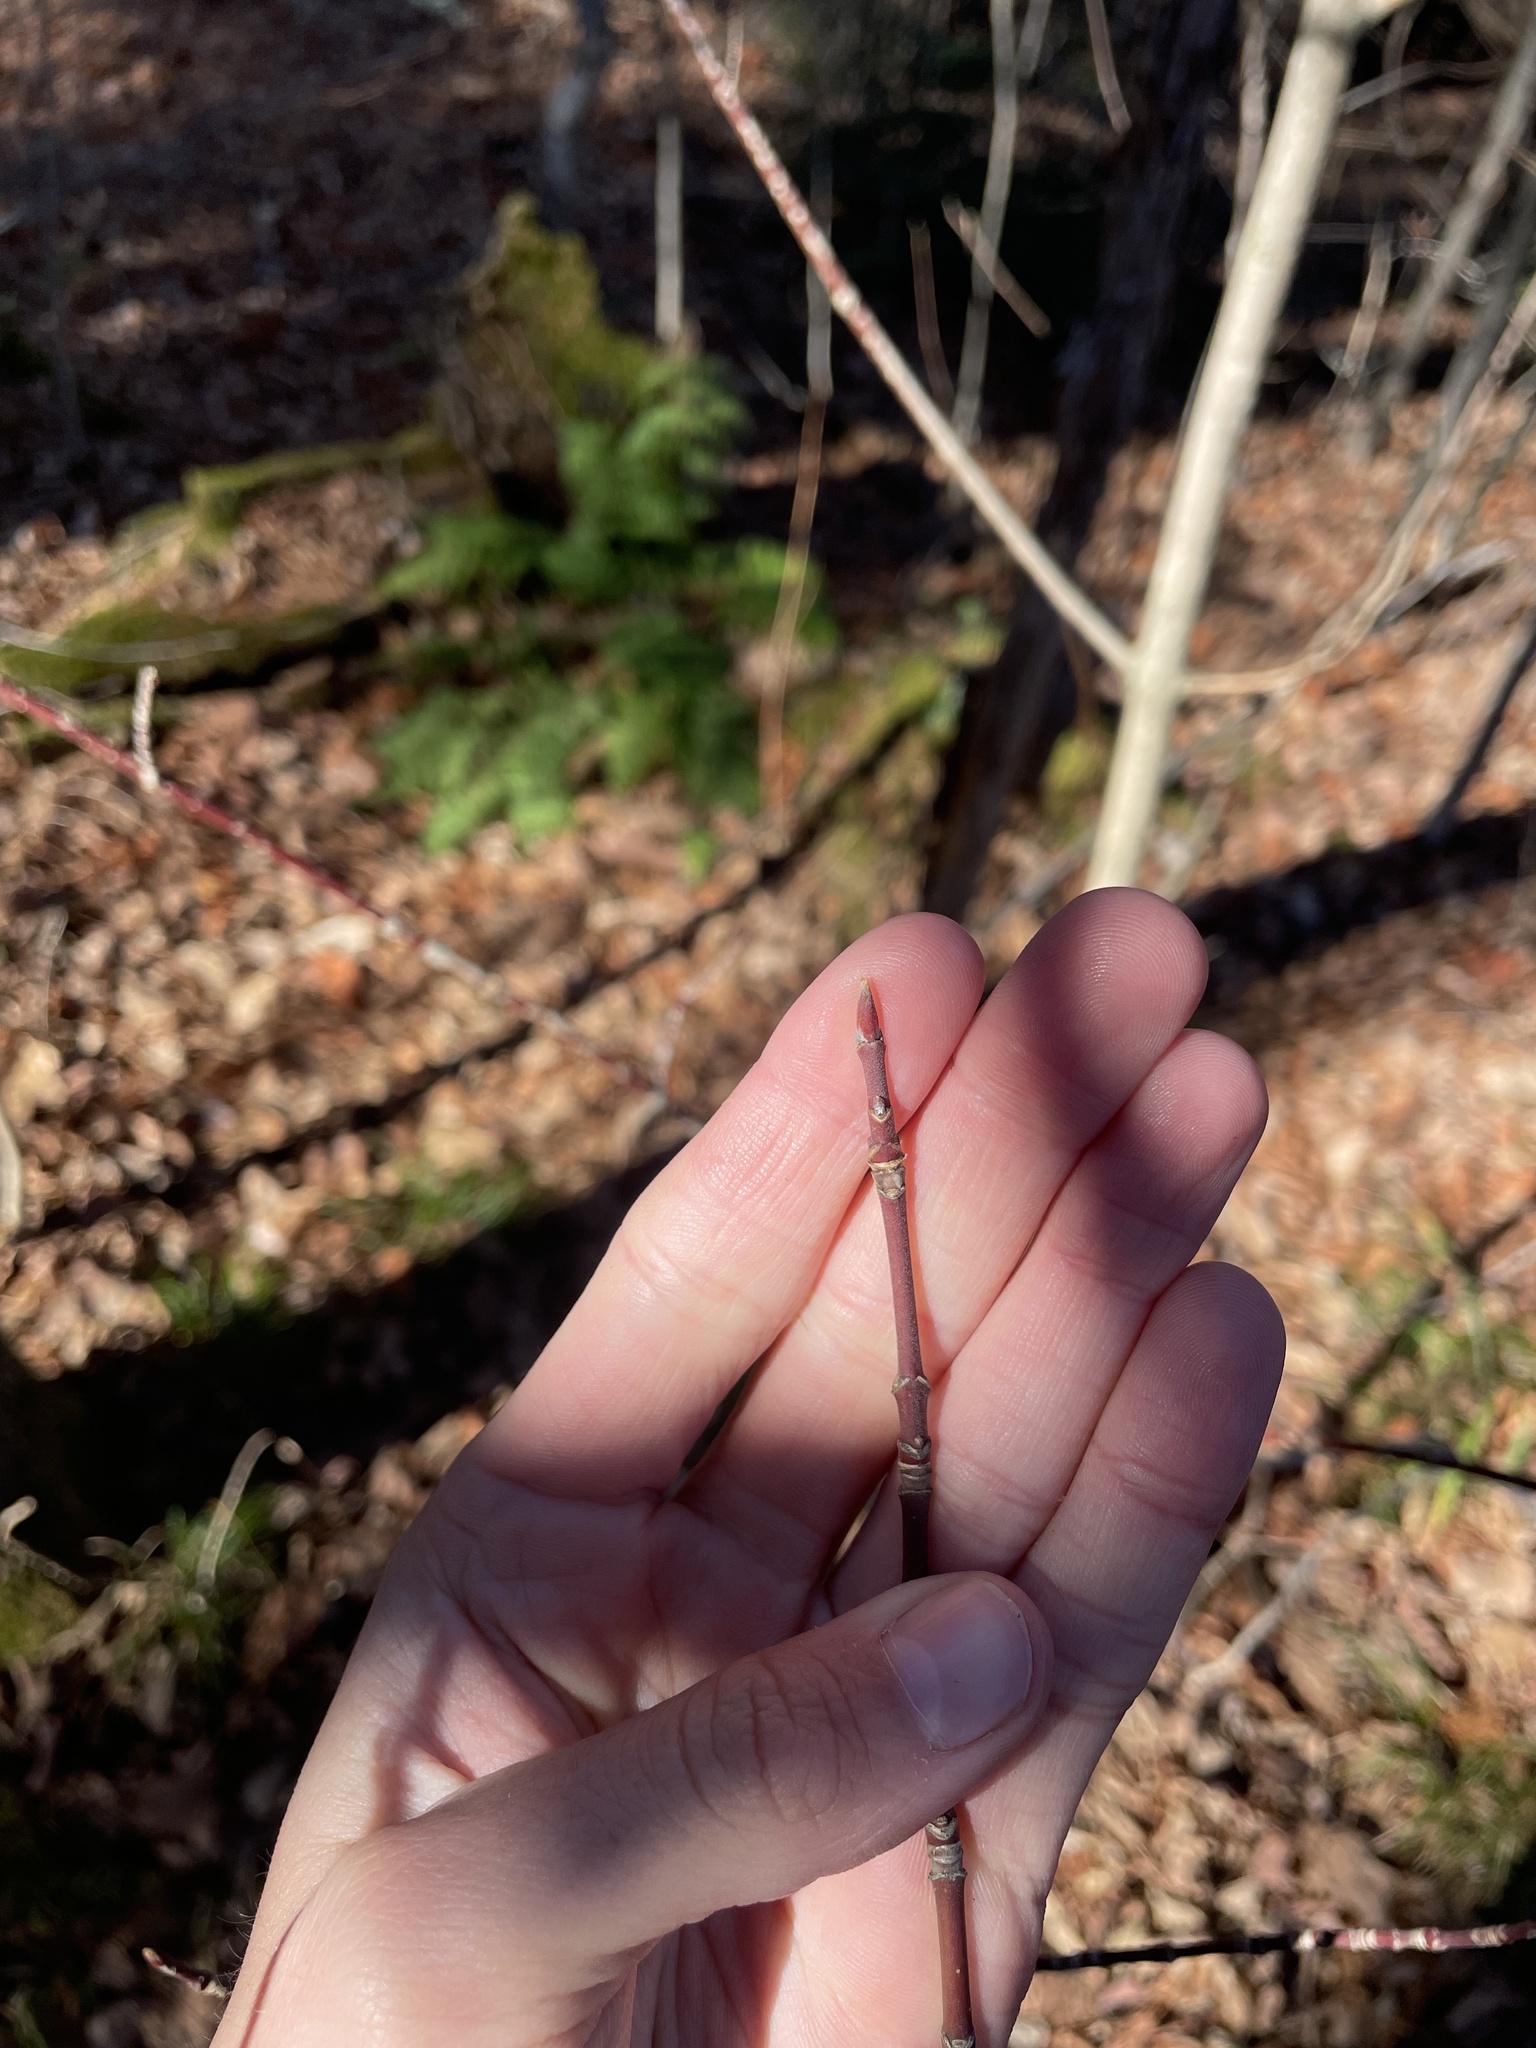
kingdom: Plantae
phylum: Tracheophyta
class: Magnoliopsida
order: Sapindales
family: Sapindaceae
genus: Acer
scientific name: Acer spicatum
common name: Mountain maple
